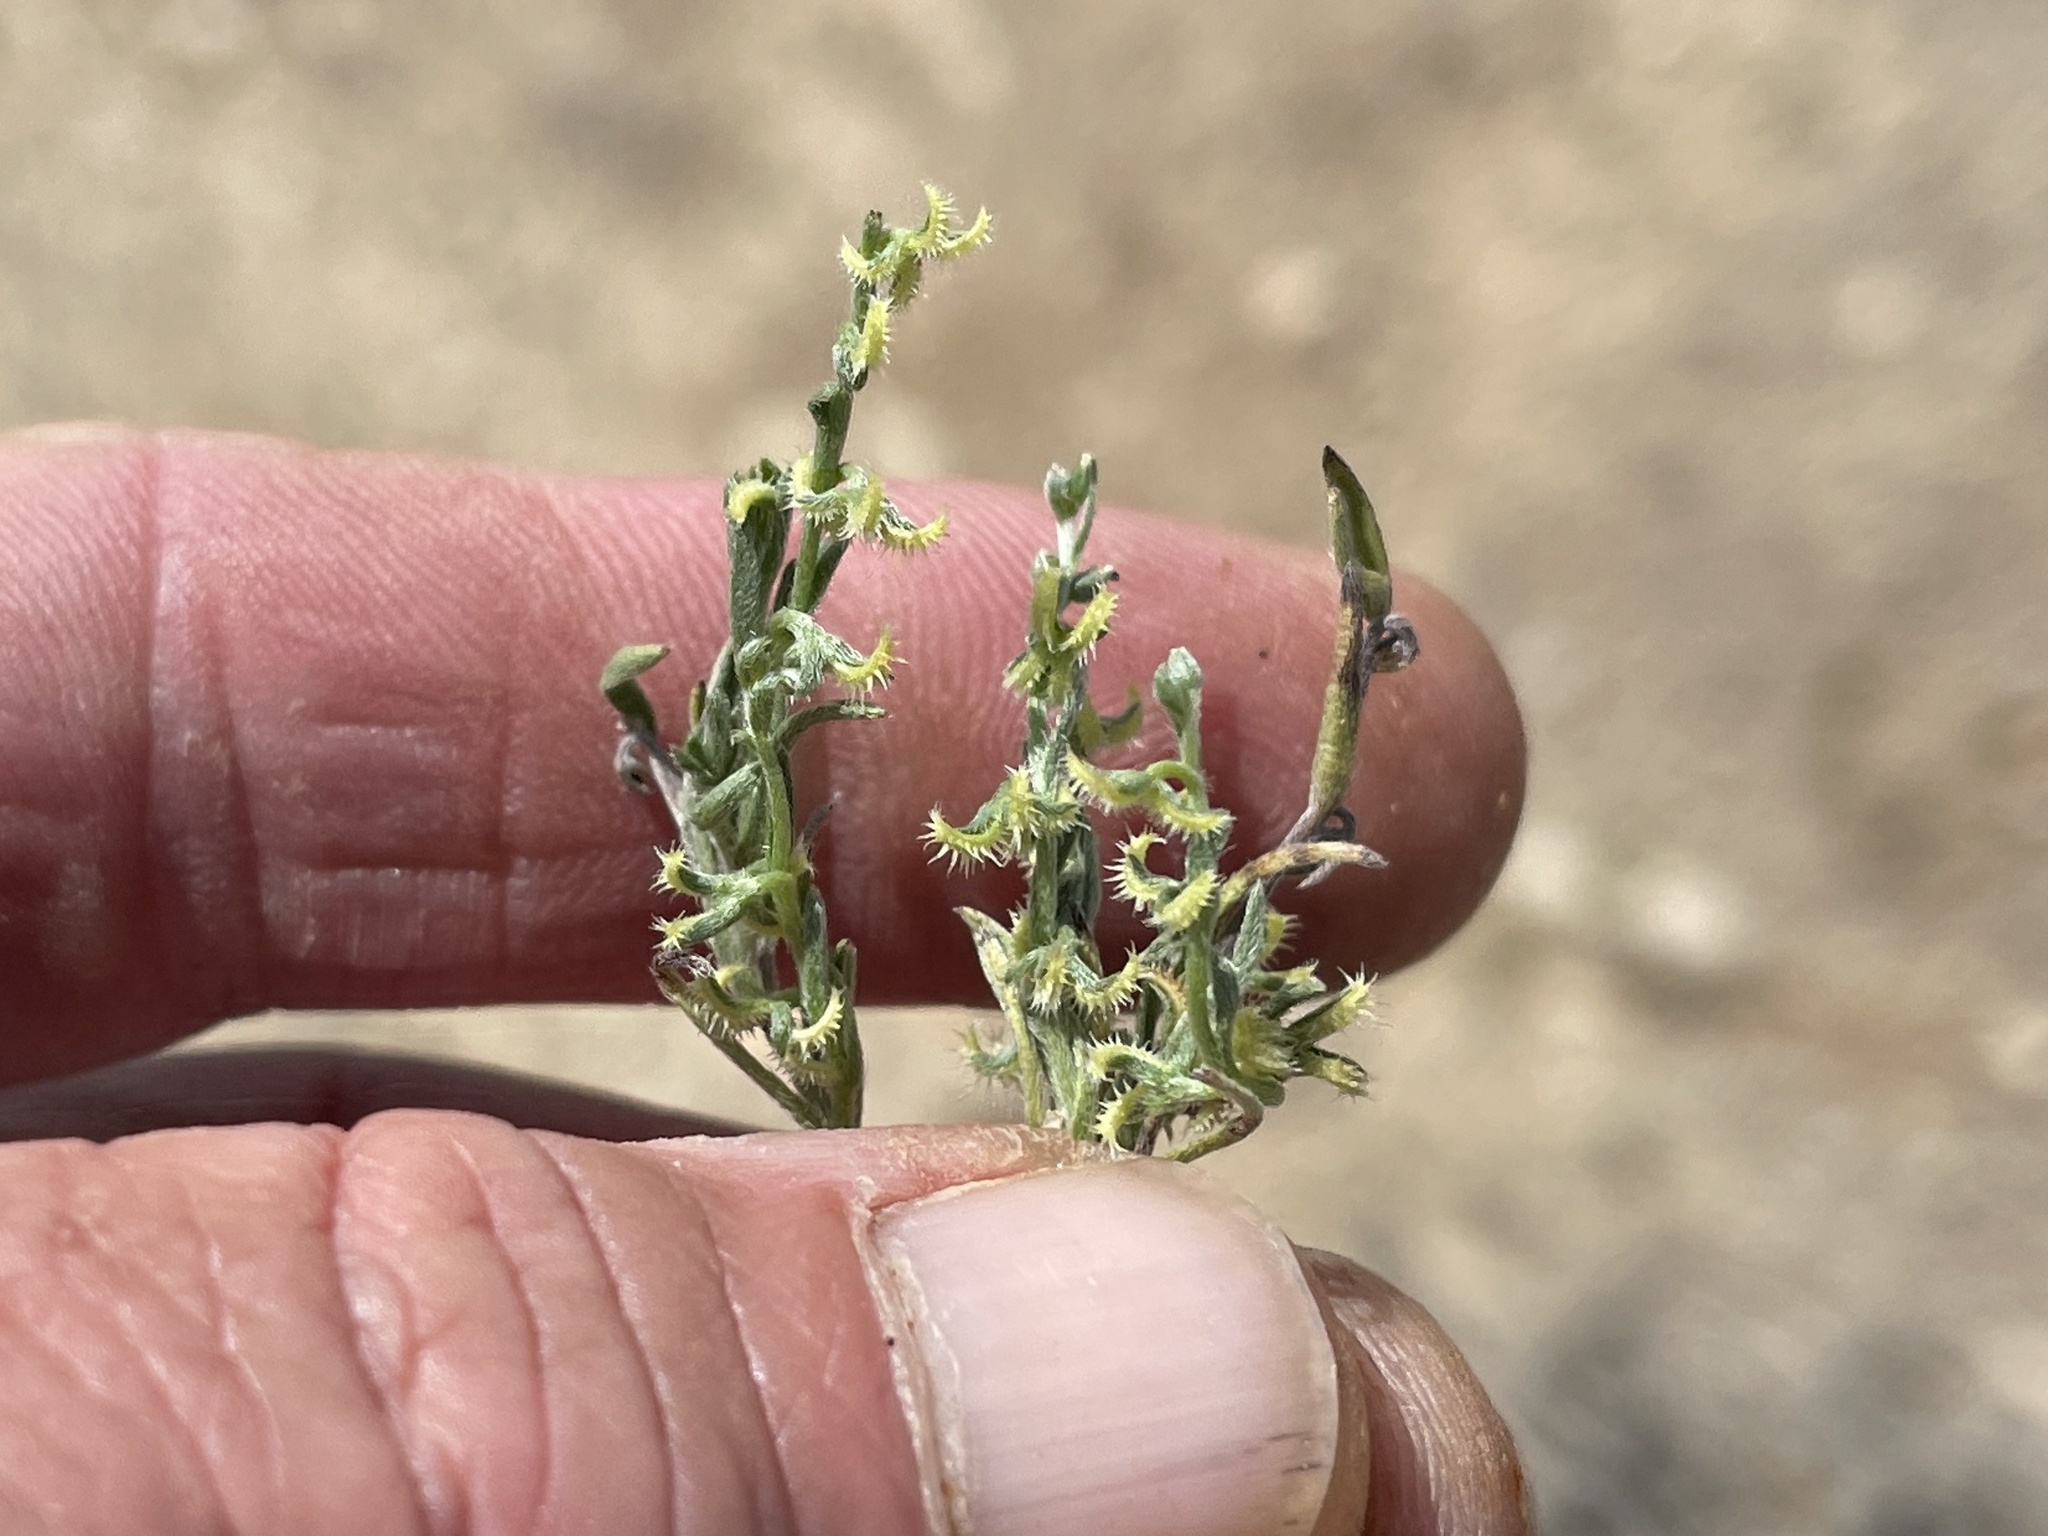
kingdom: Plantae
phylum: Tracheophyta
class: Magnoliopsida
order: Boraginales
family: Boraginaceae
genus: Pectocarya
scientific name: Pectocarya recurvata
